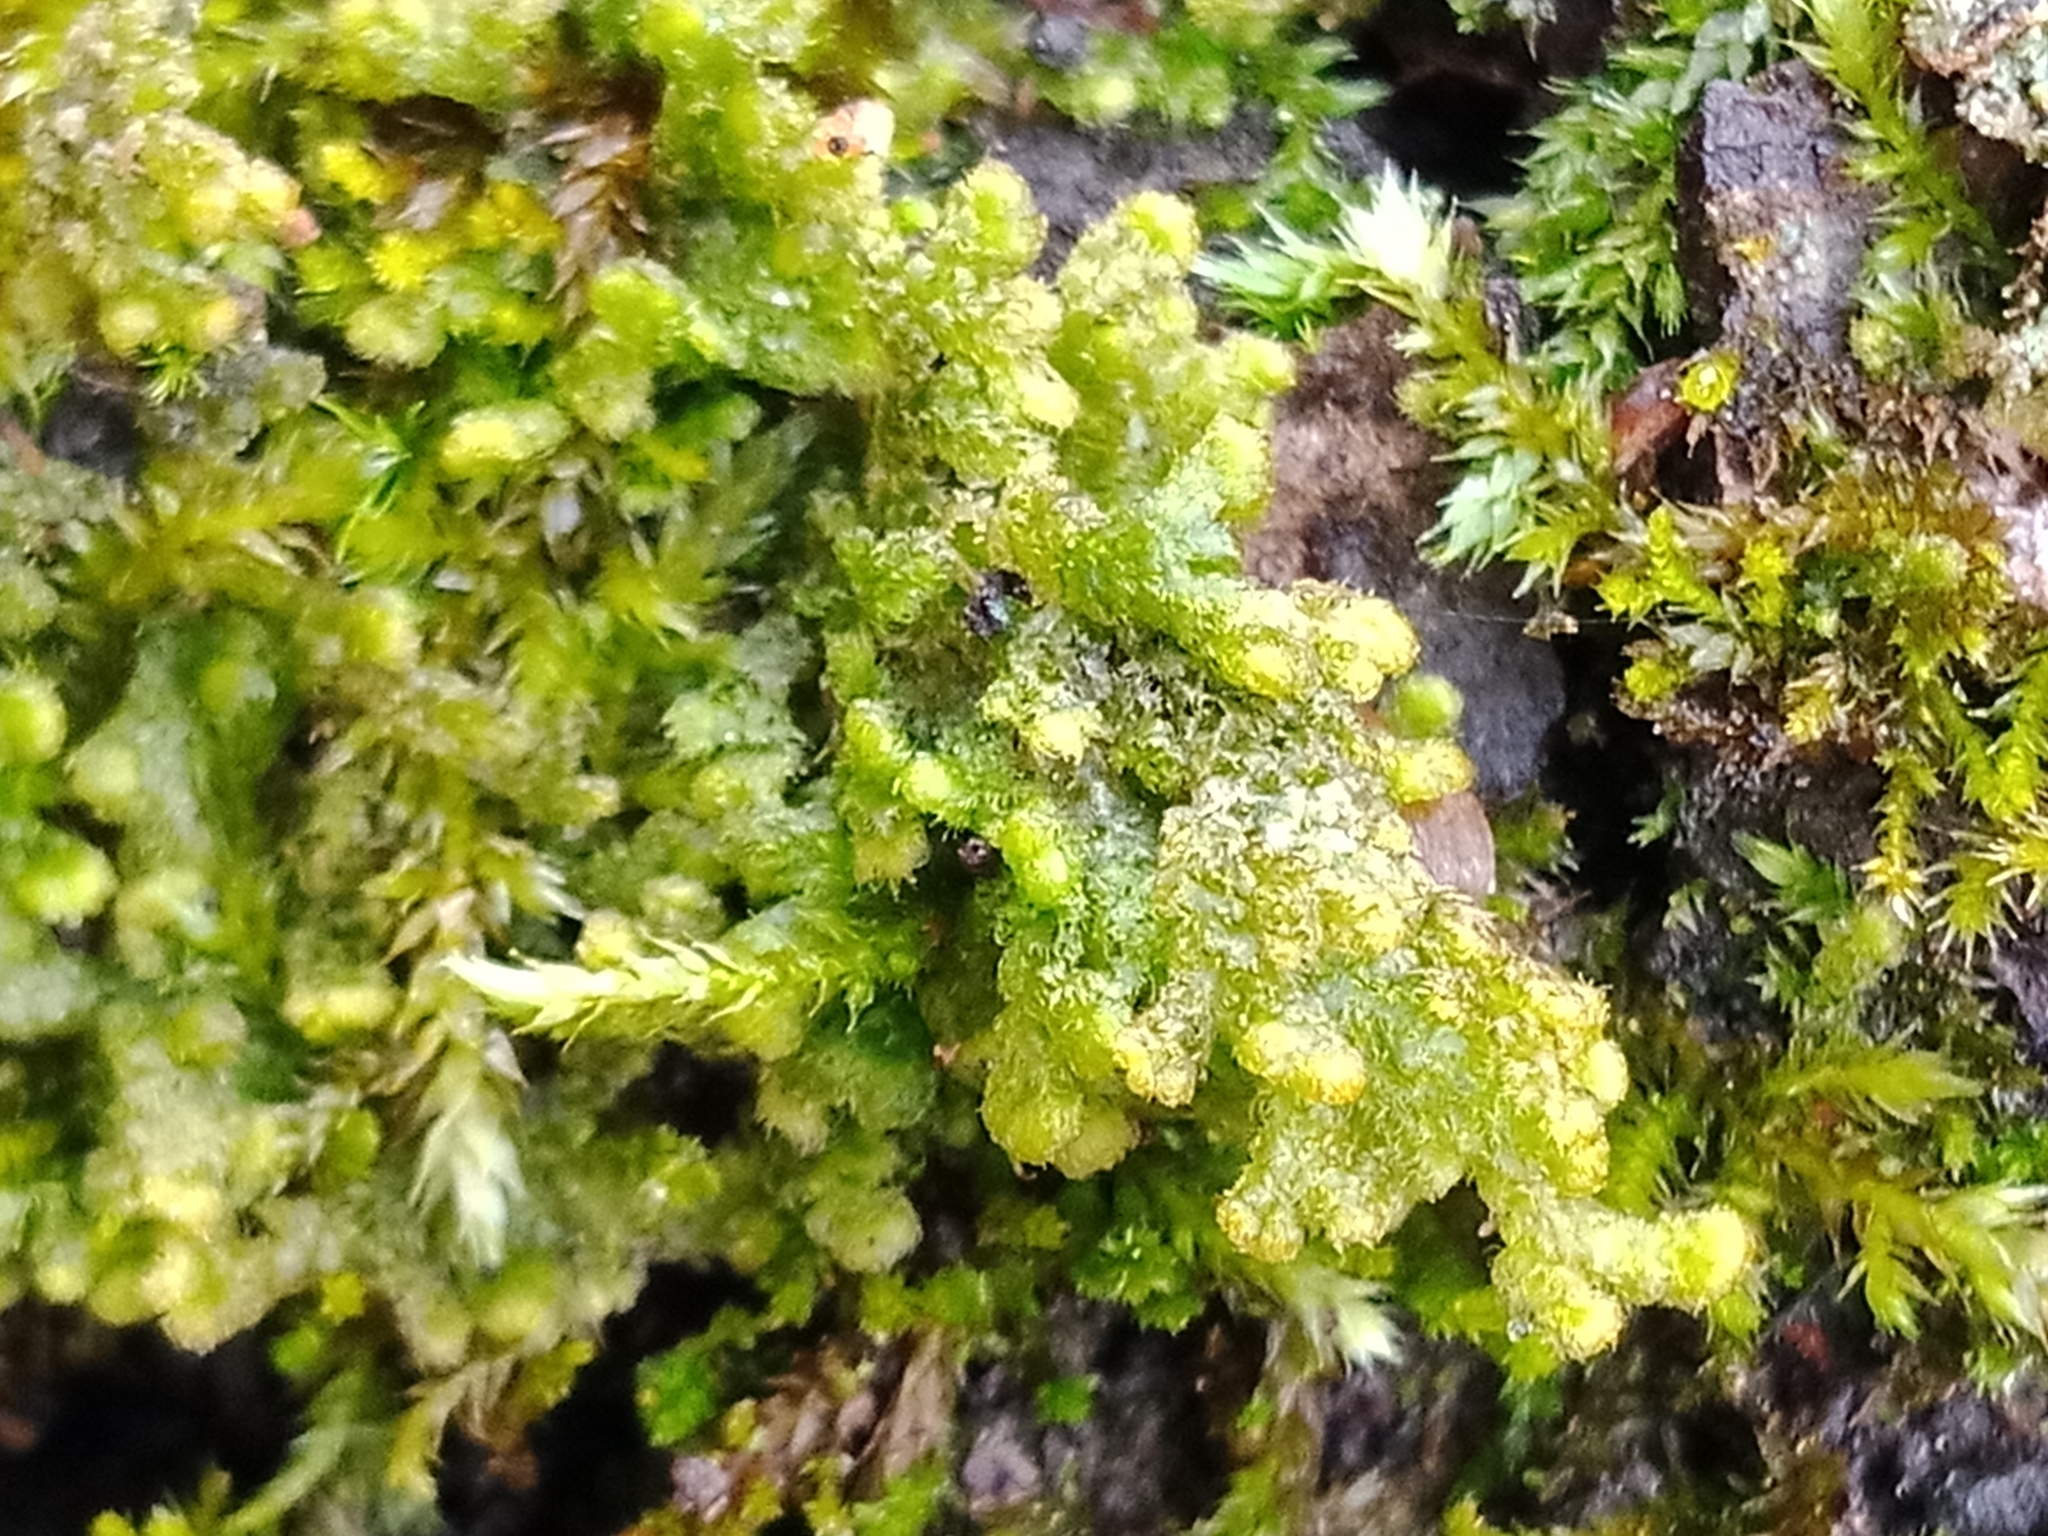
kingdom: Plantae
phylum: Marchantiophyta
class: Jungermanniopsida
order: Ptilidiales
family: Ptilidiaceae
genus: Ptilidium
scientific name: Ptilidium pulcherrimum
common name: Tree fringewort
